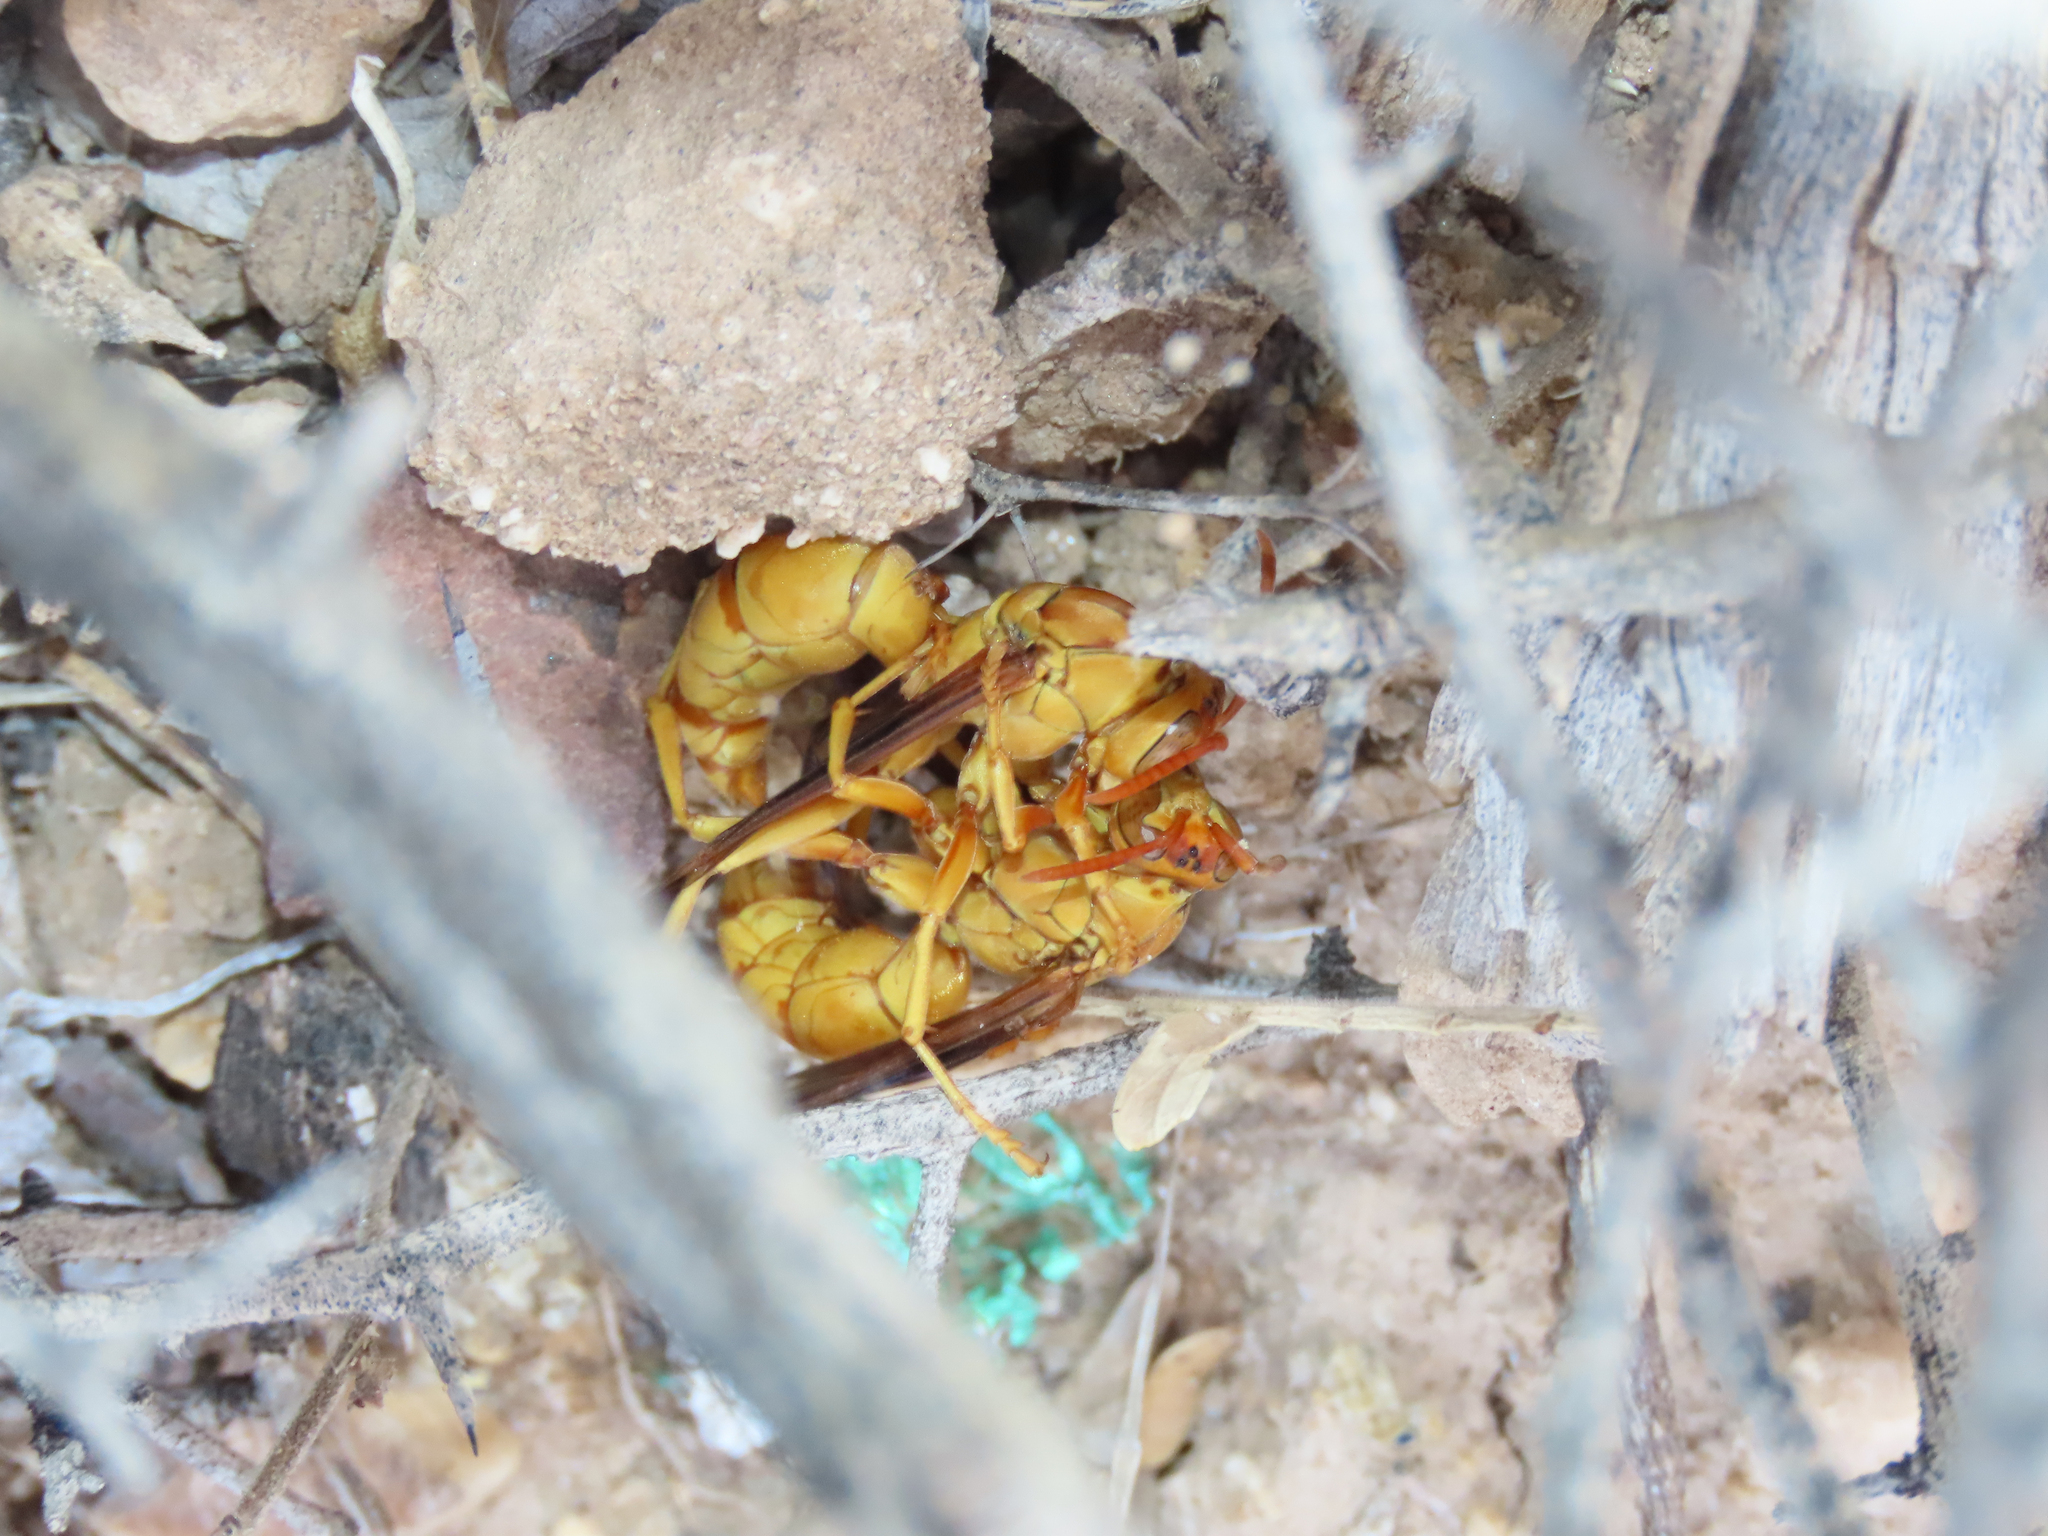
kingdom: Animalia
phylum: Arthropoda
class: Insecta
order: Hymenoptera
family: Eumenidae
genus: Polistes
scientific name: Polistes flavus
